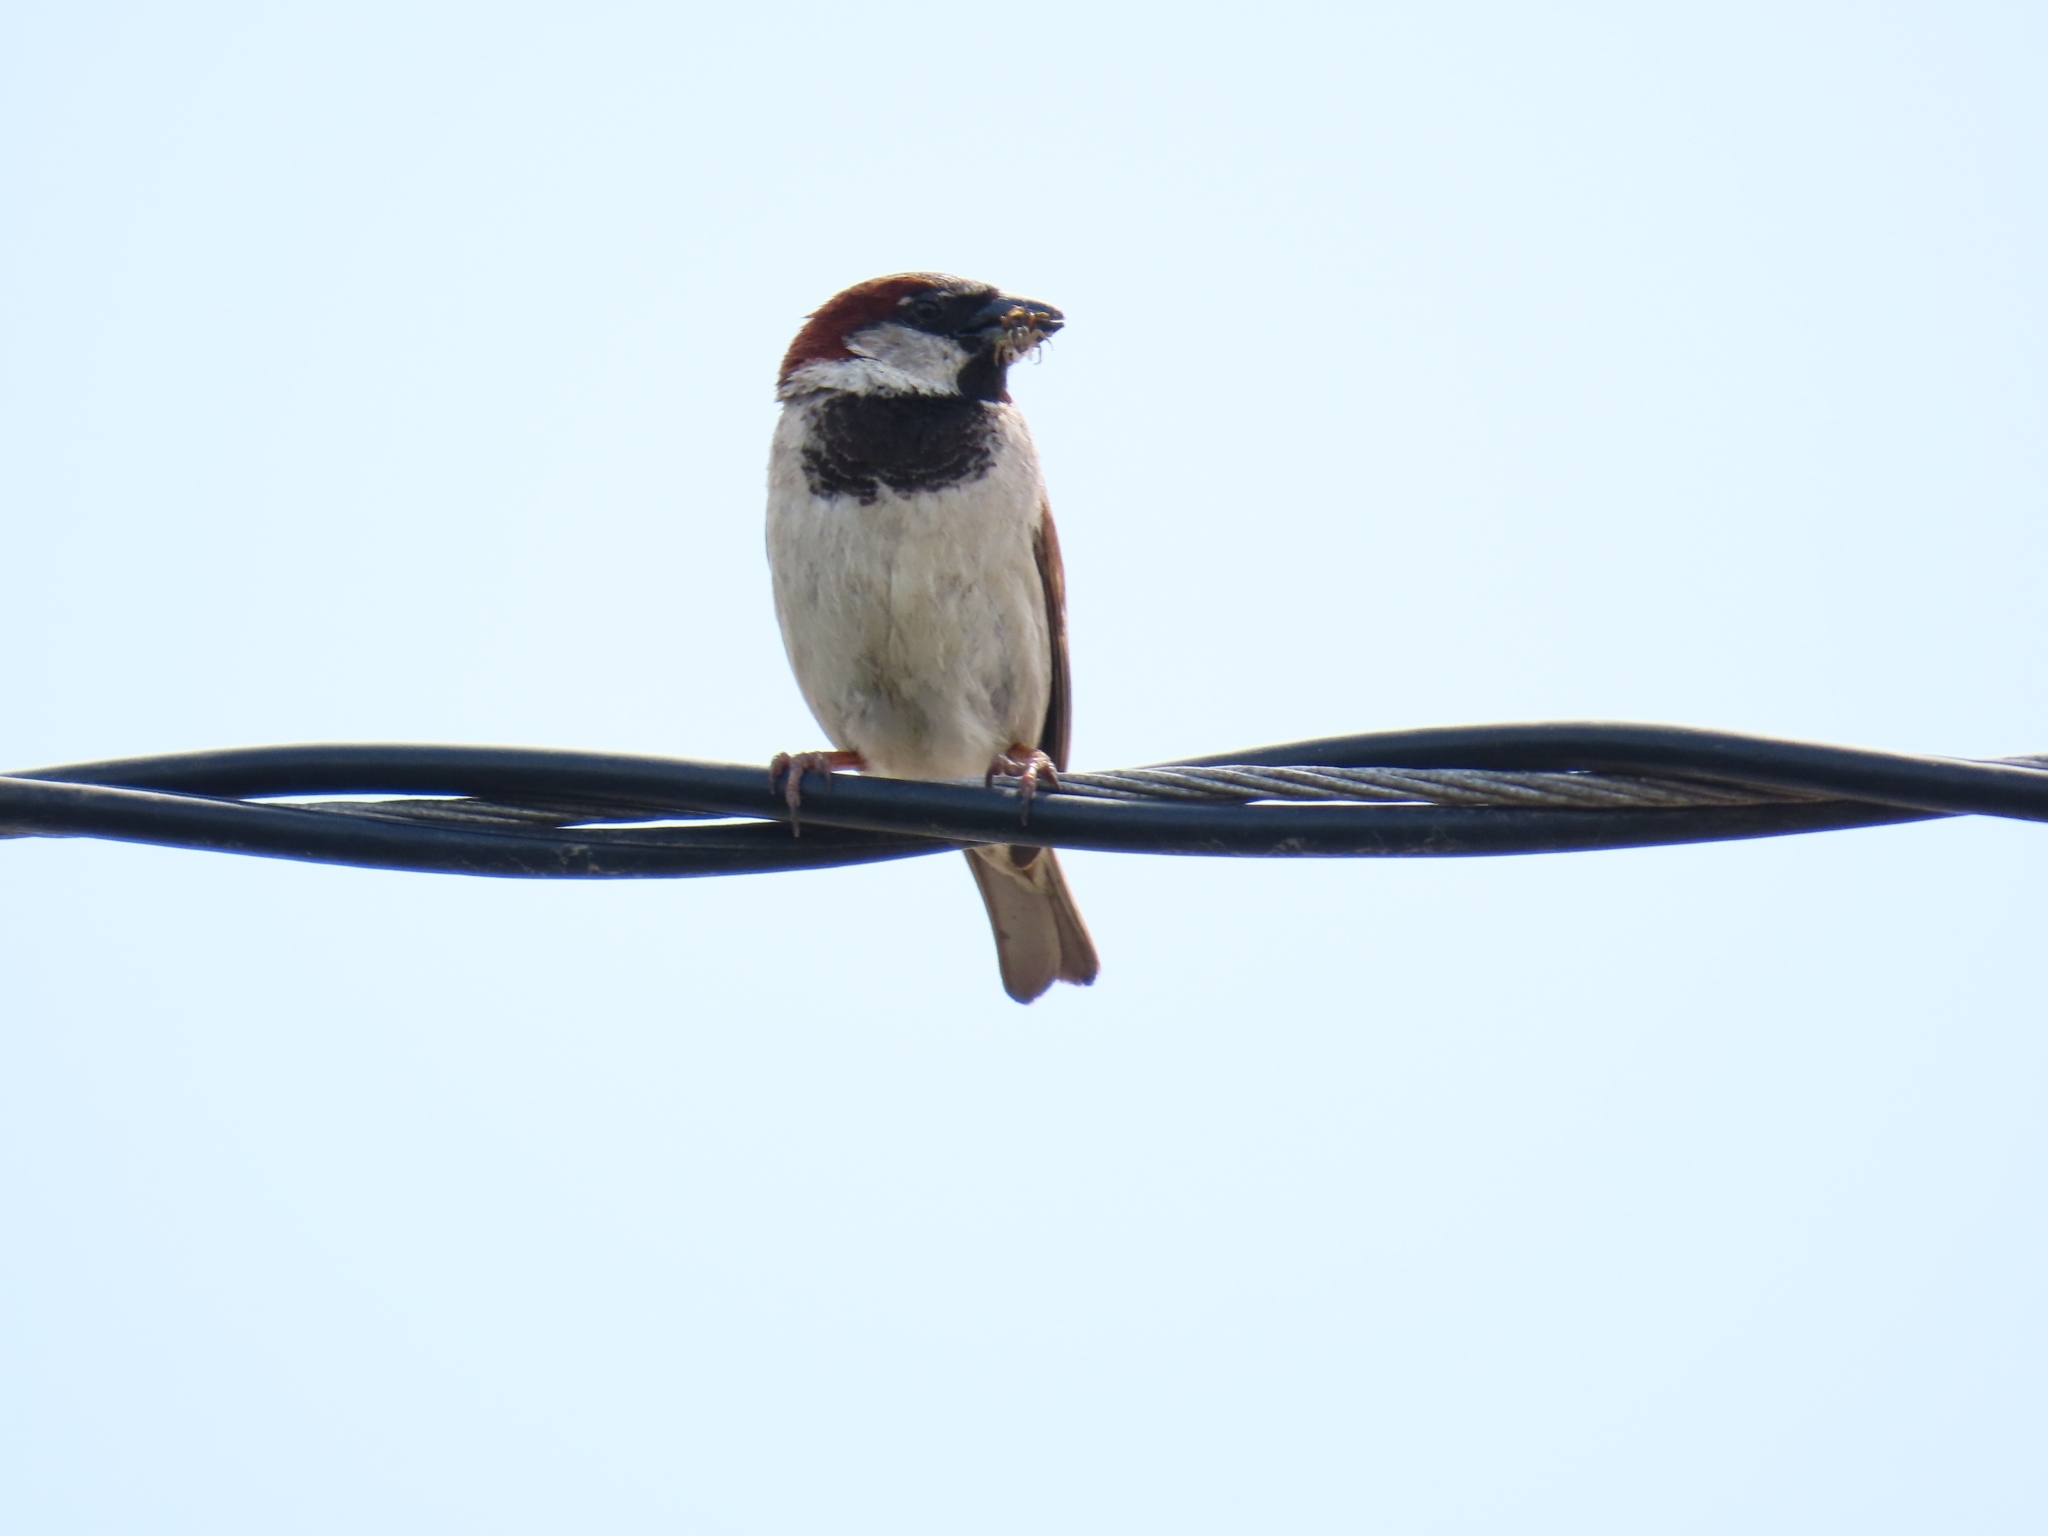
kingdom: Animalia
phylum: Chordata
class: Aves
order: Passeriformes
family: Passeridae
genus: Passer
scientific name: Passer domesticus
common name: House sparrow
